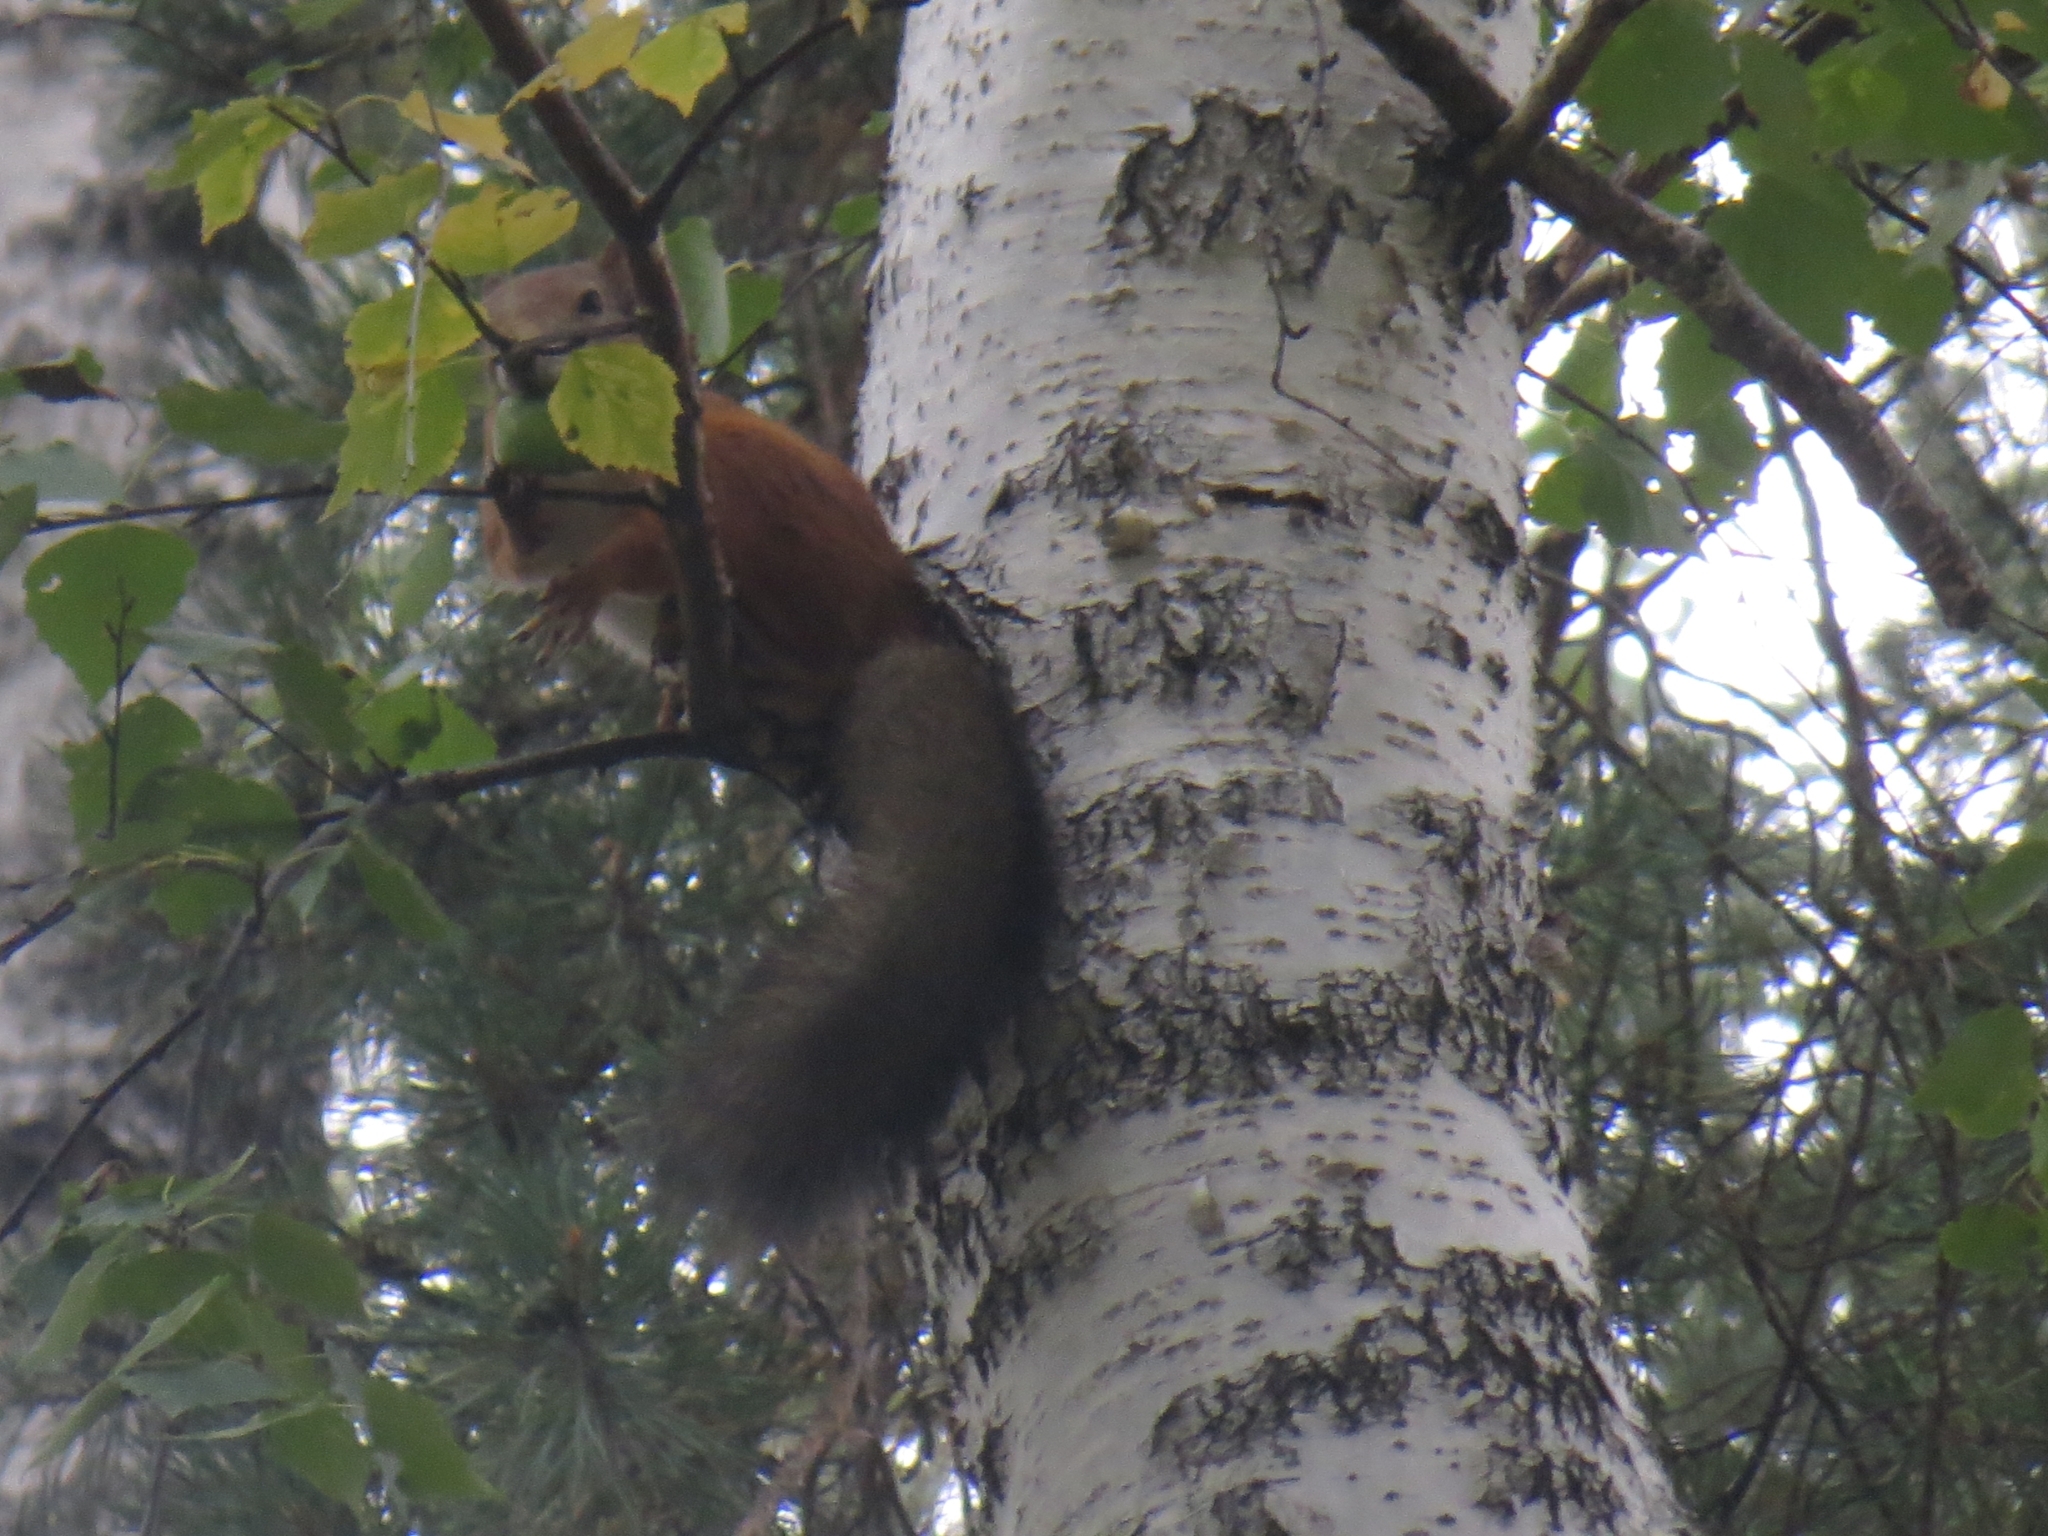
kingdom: Animalia
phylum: Chordata
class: Mammalia
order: Rodentia
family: Sciuridae
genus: Sciurus
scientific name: Sciurus vulgaris
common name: Eurasian red squirrel
